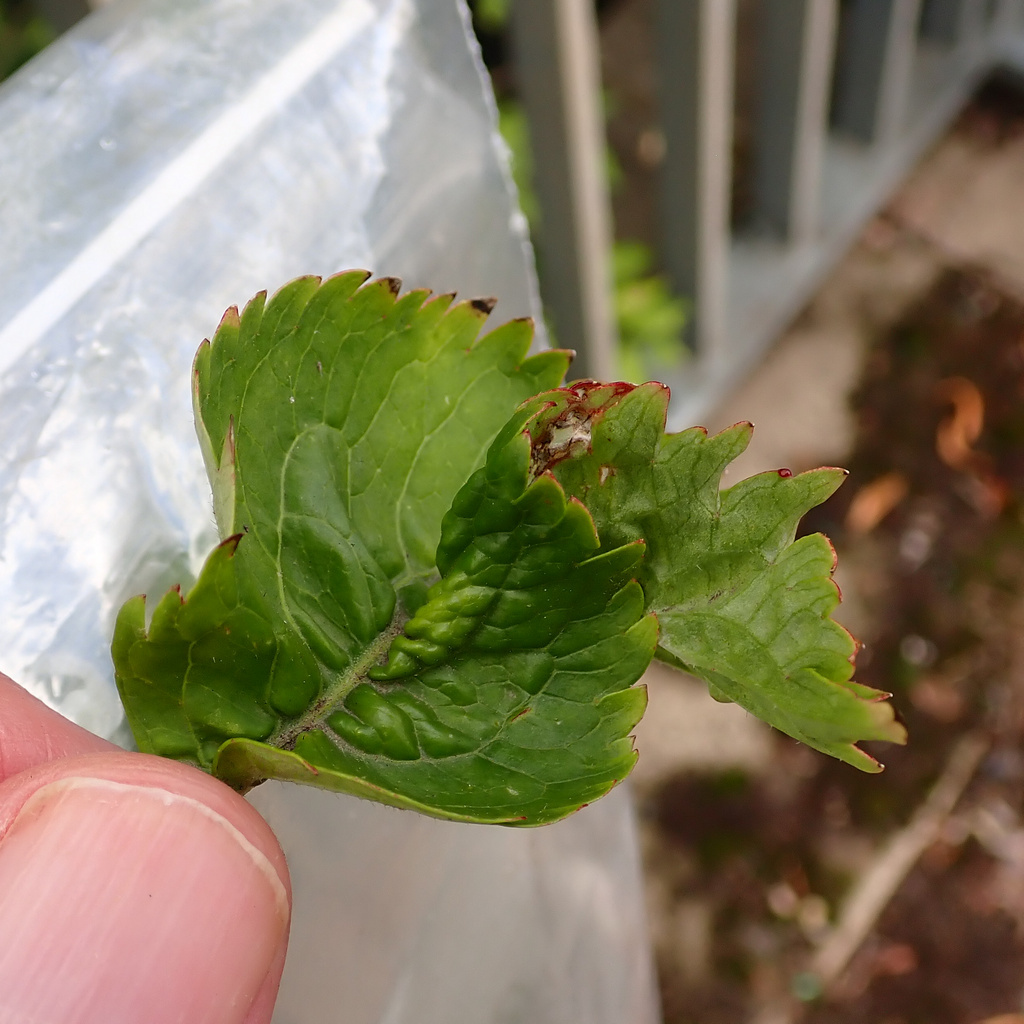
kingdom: Plantae
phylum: Tracheophyta
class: Magnoliopsida
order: Dipsacales
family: Viburnaceae
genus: Sambucus
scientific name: Sambucus nigra
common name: Elder
